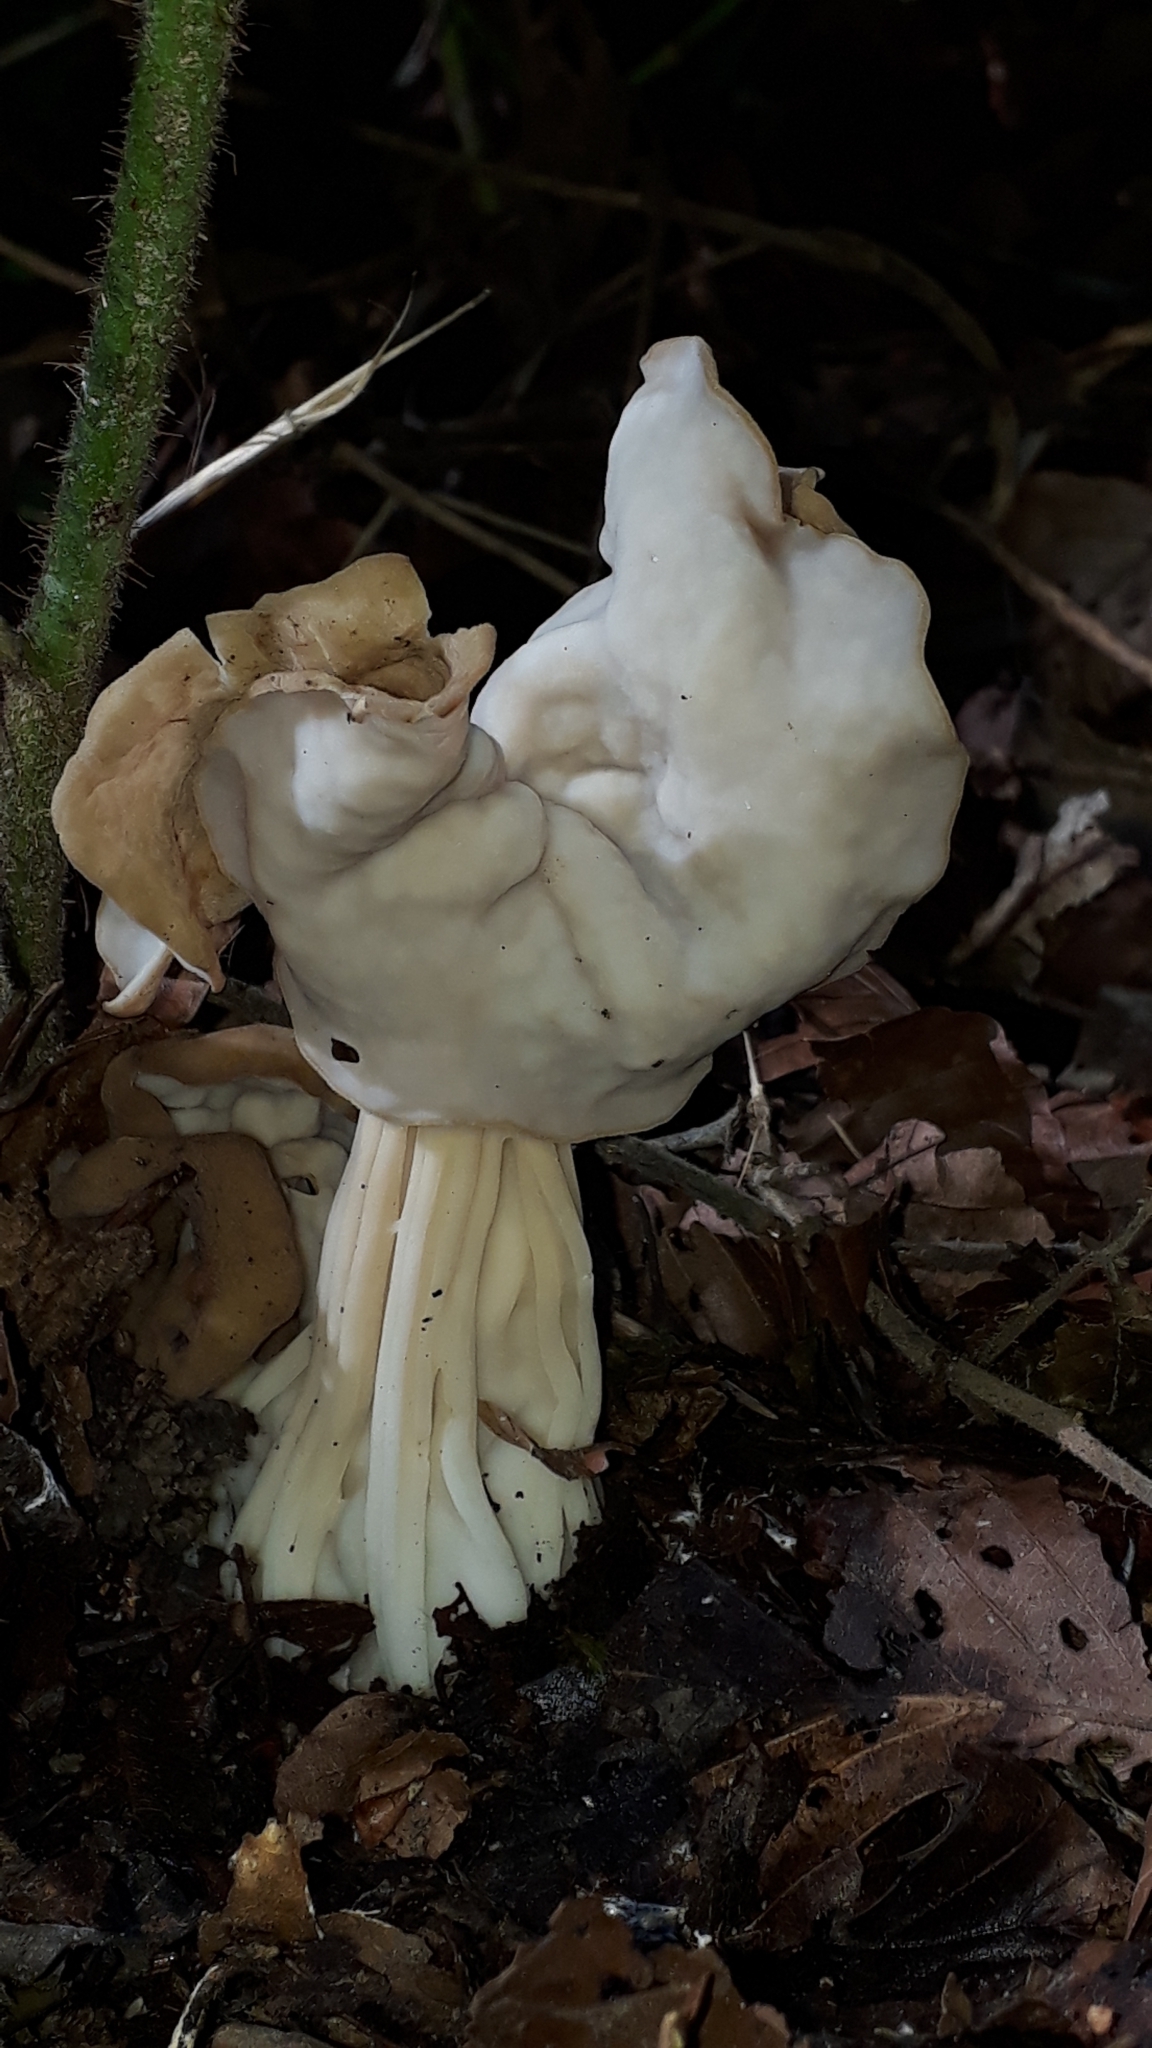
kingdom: Fungi
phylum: Ascomycota
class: Pezizomycetes
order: Pezizales
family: Helvellaceae
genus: Helvella
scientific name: Helvella crispa
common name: White saddle
